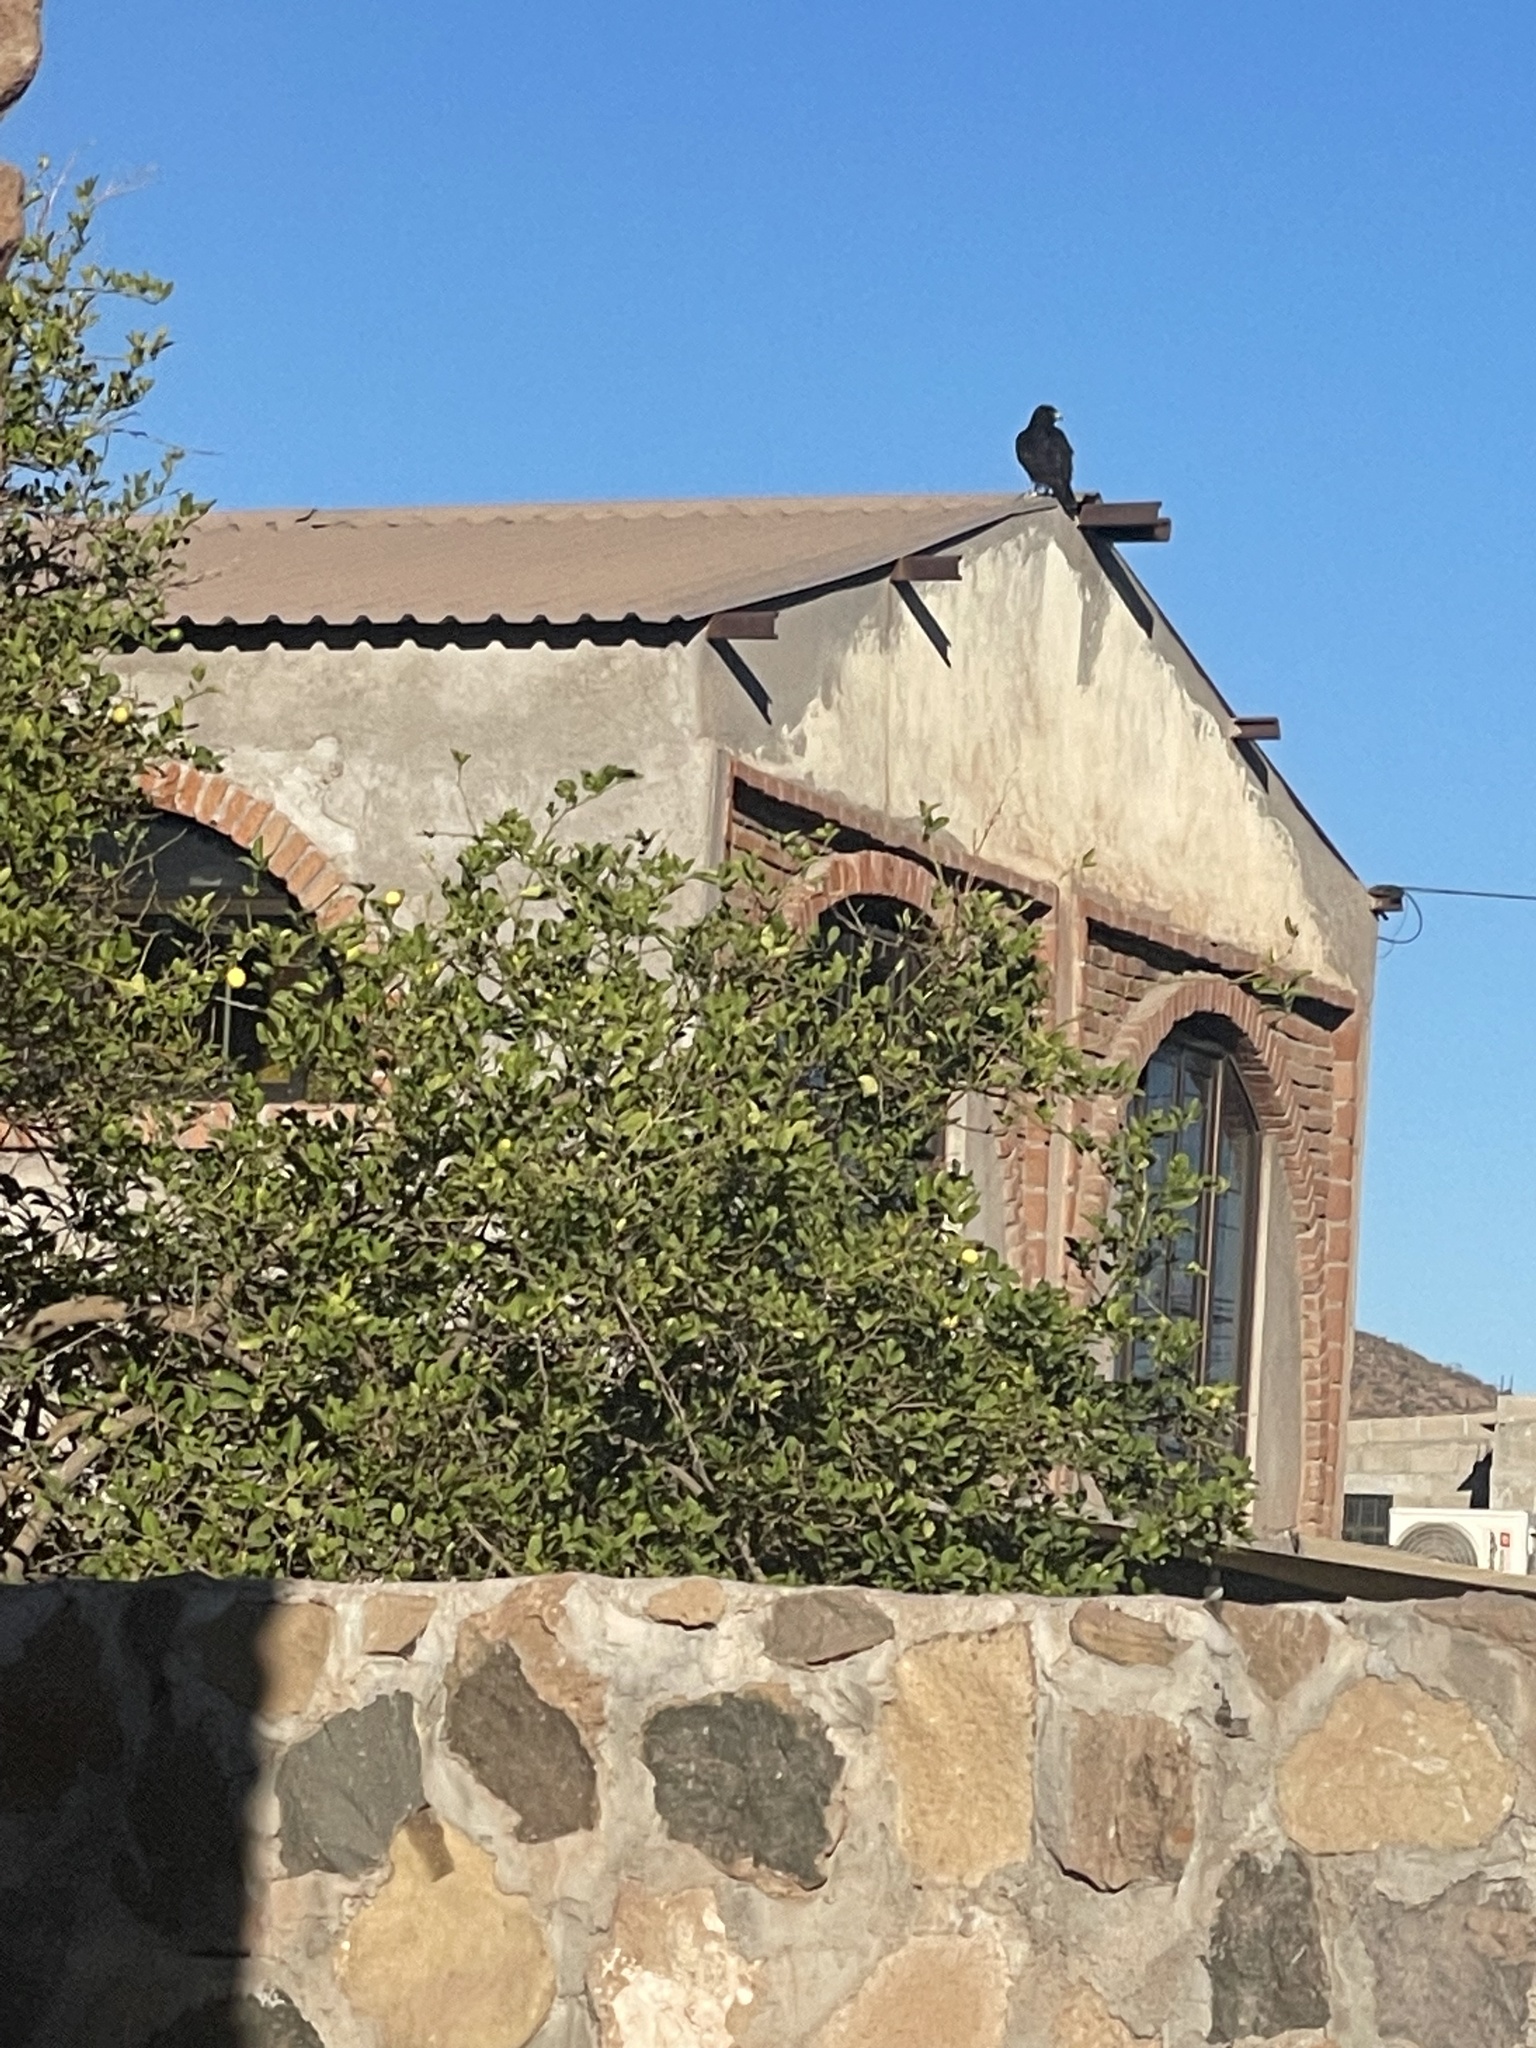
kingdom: Animalia
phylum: Chordata
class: Aves
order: Accipitriformes
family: Accipitridae
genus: Buteo
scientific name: Buteo albonotatus
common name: Zone-tailed hawk
